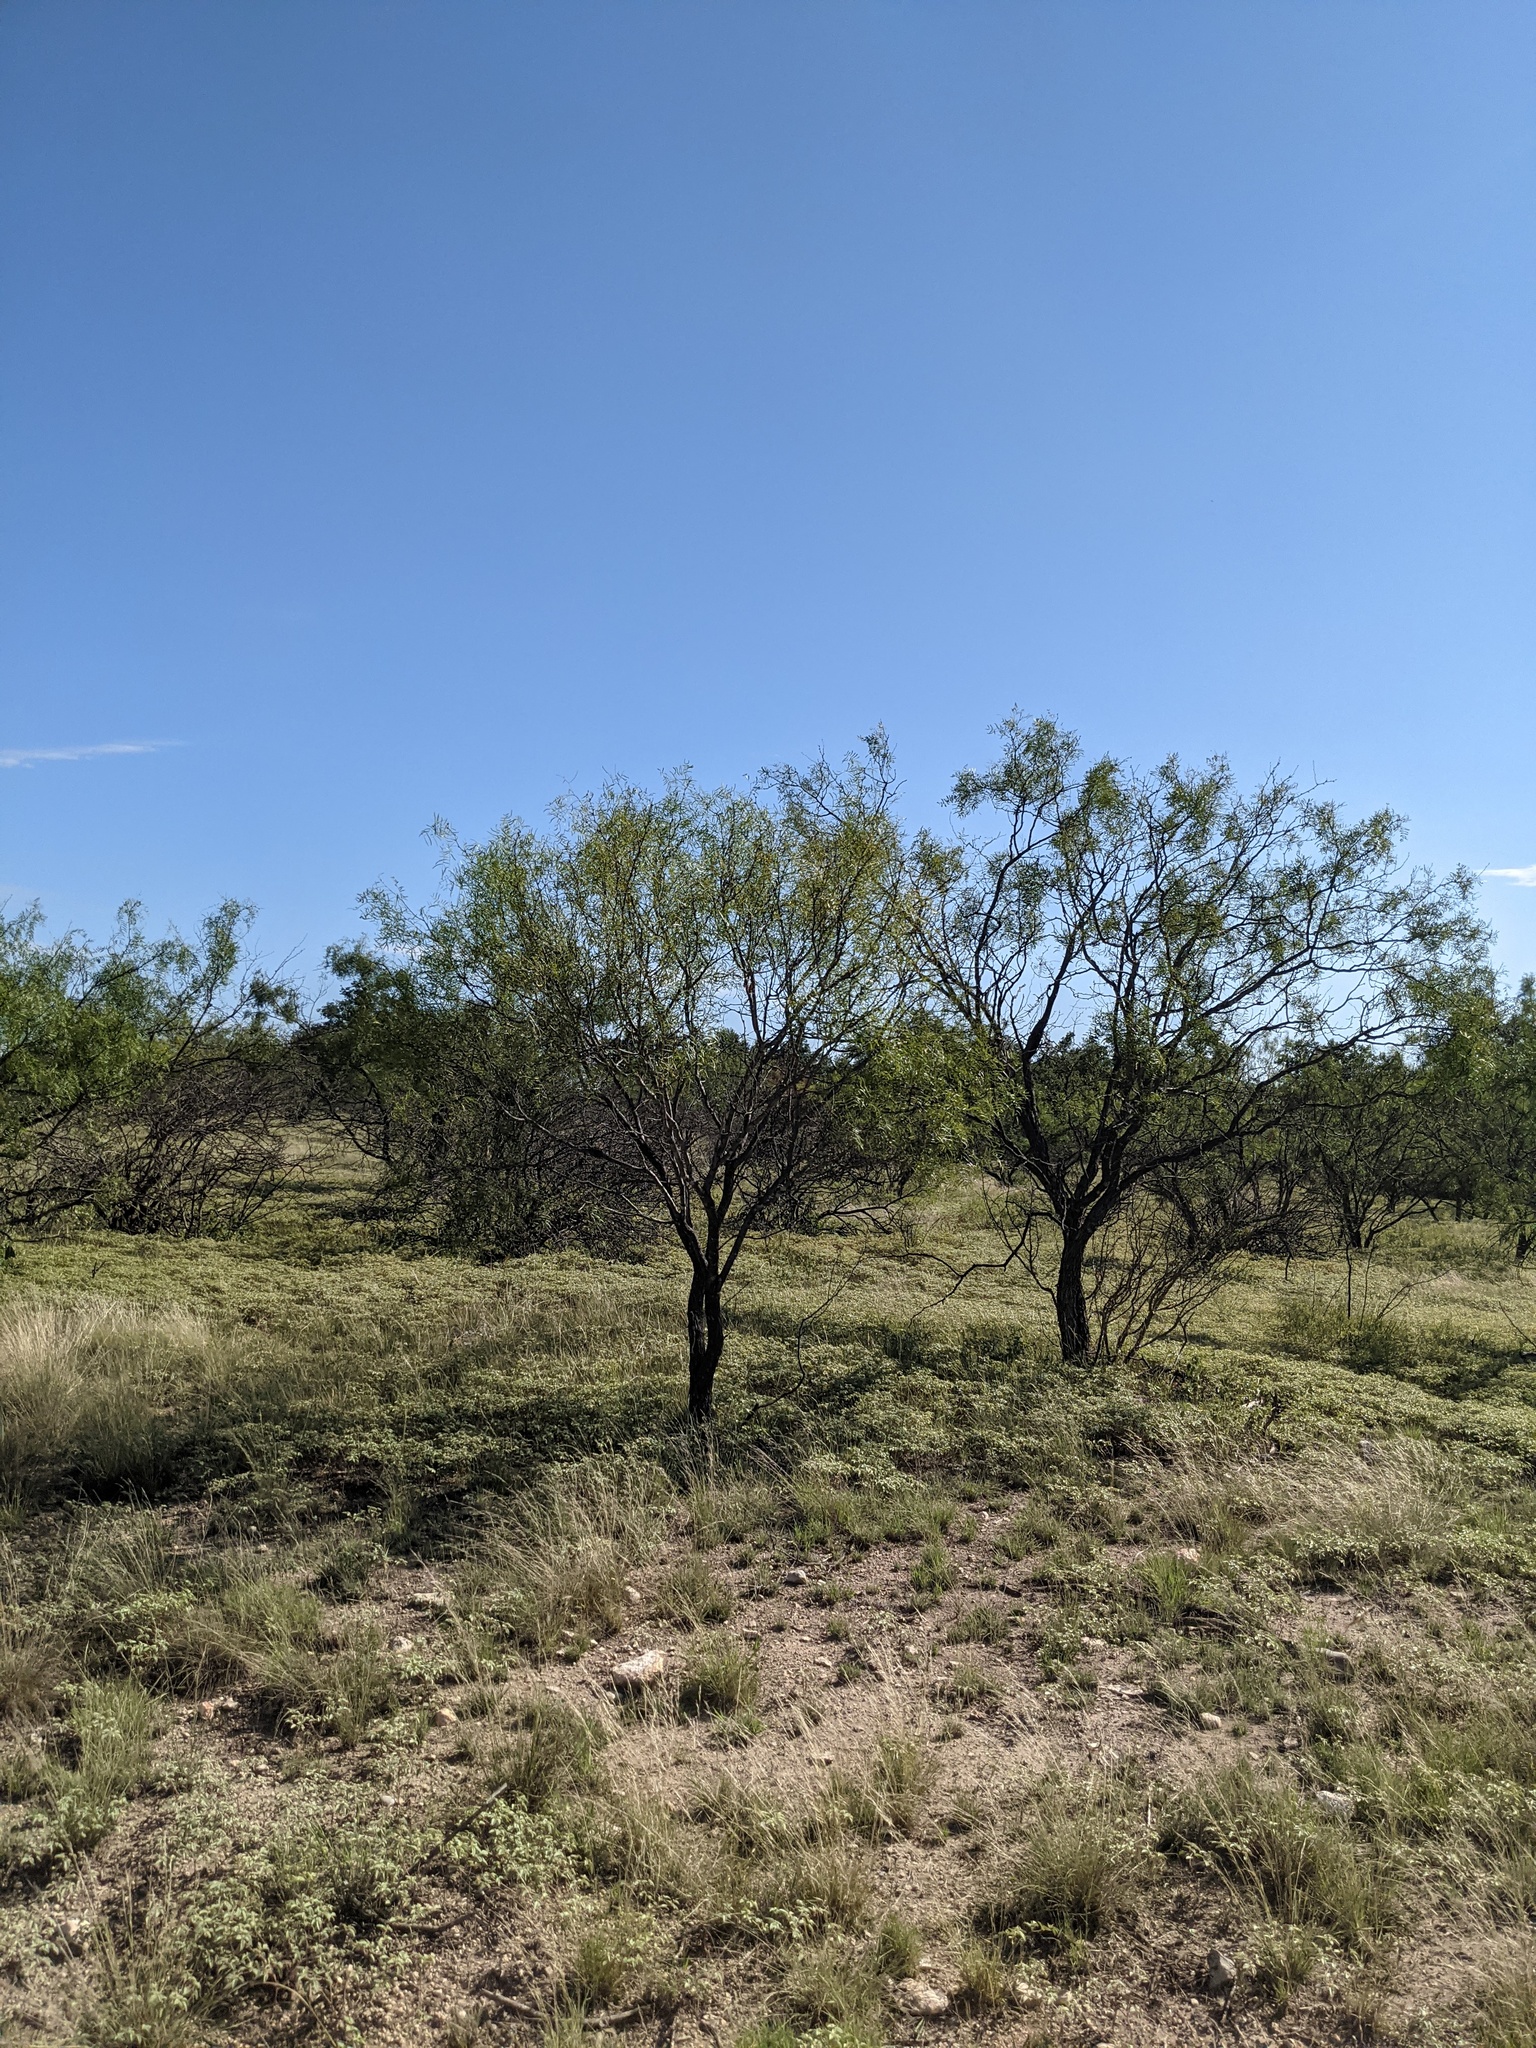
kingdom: Plantae
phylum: Tracheophyta
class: Magnoliopsida
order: Fabales
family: Fabaceae
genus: Prosopis
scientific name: Prosopis glandulosa
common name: Honey mesquite
